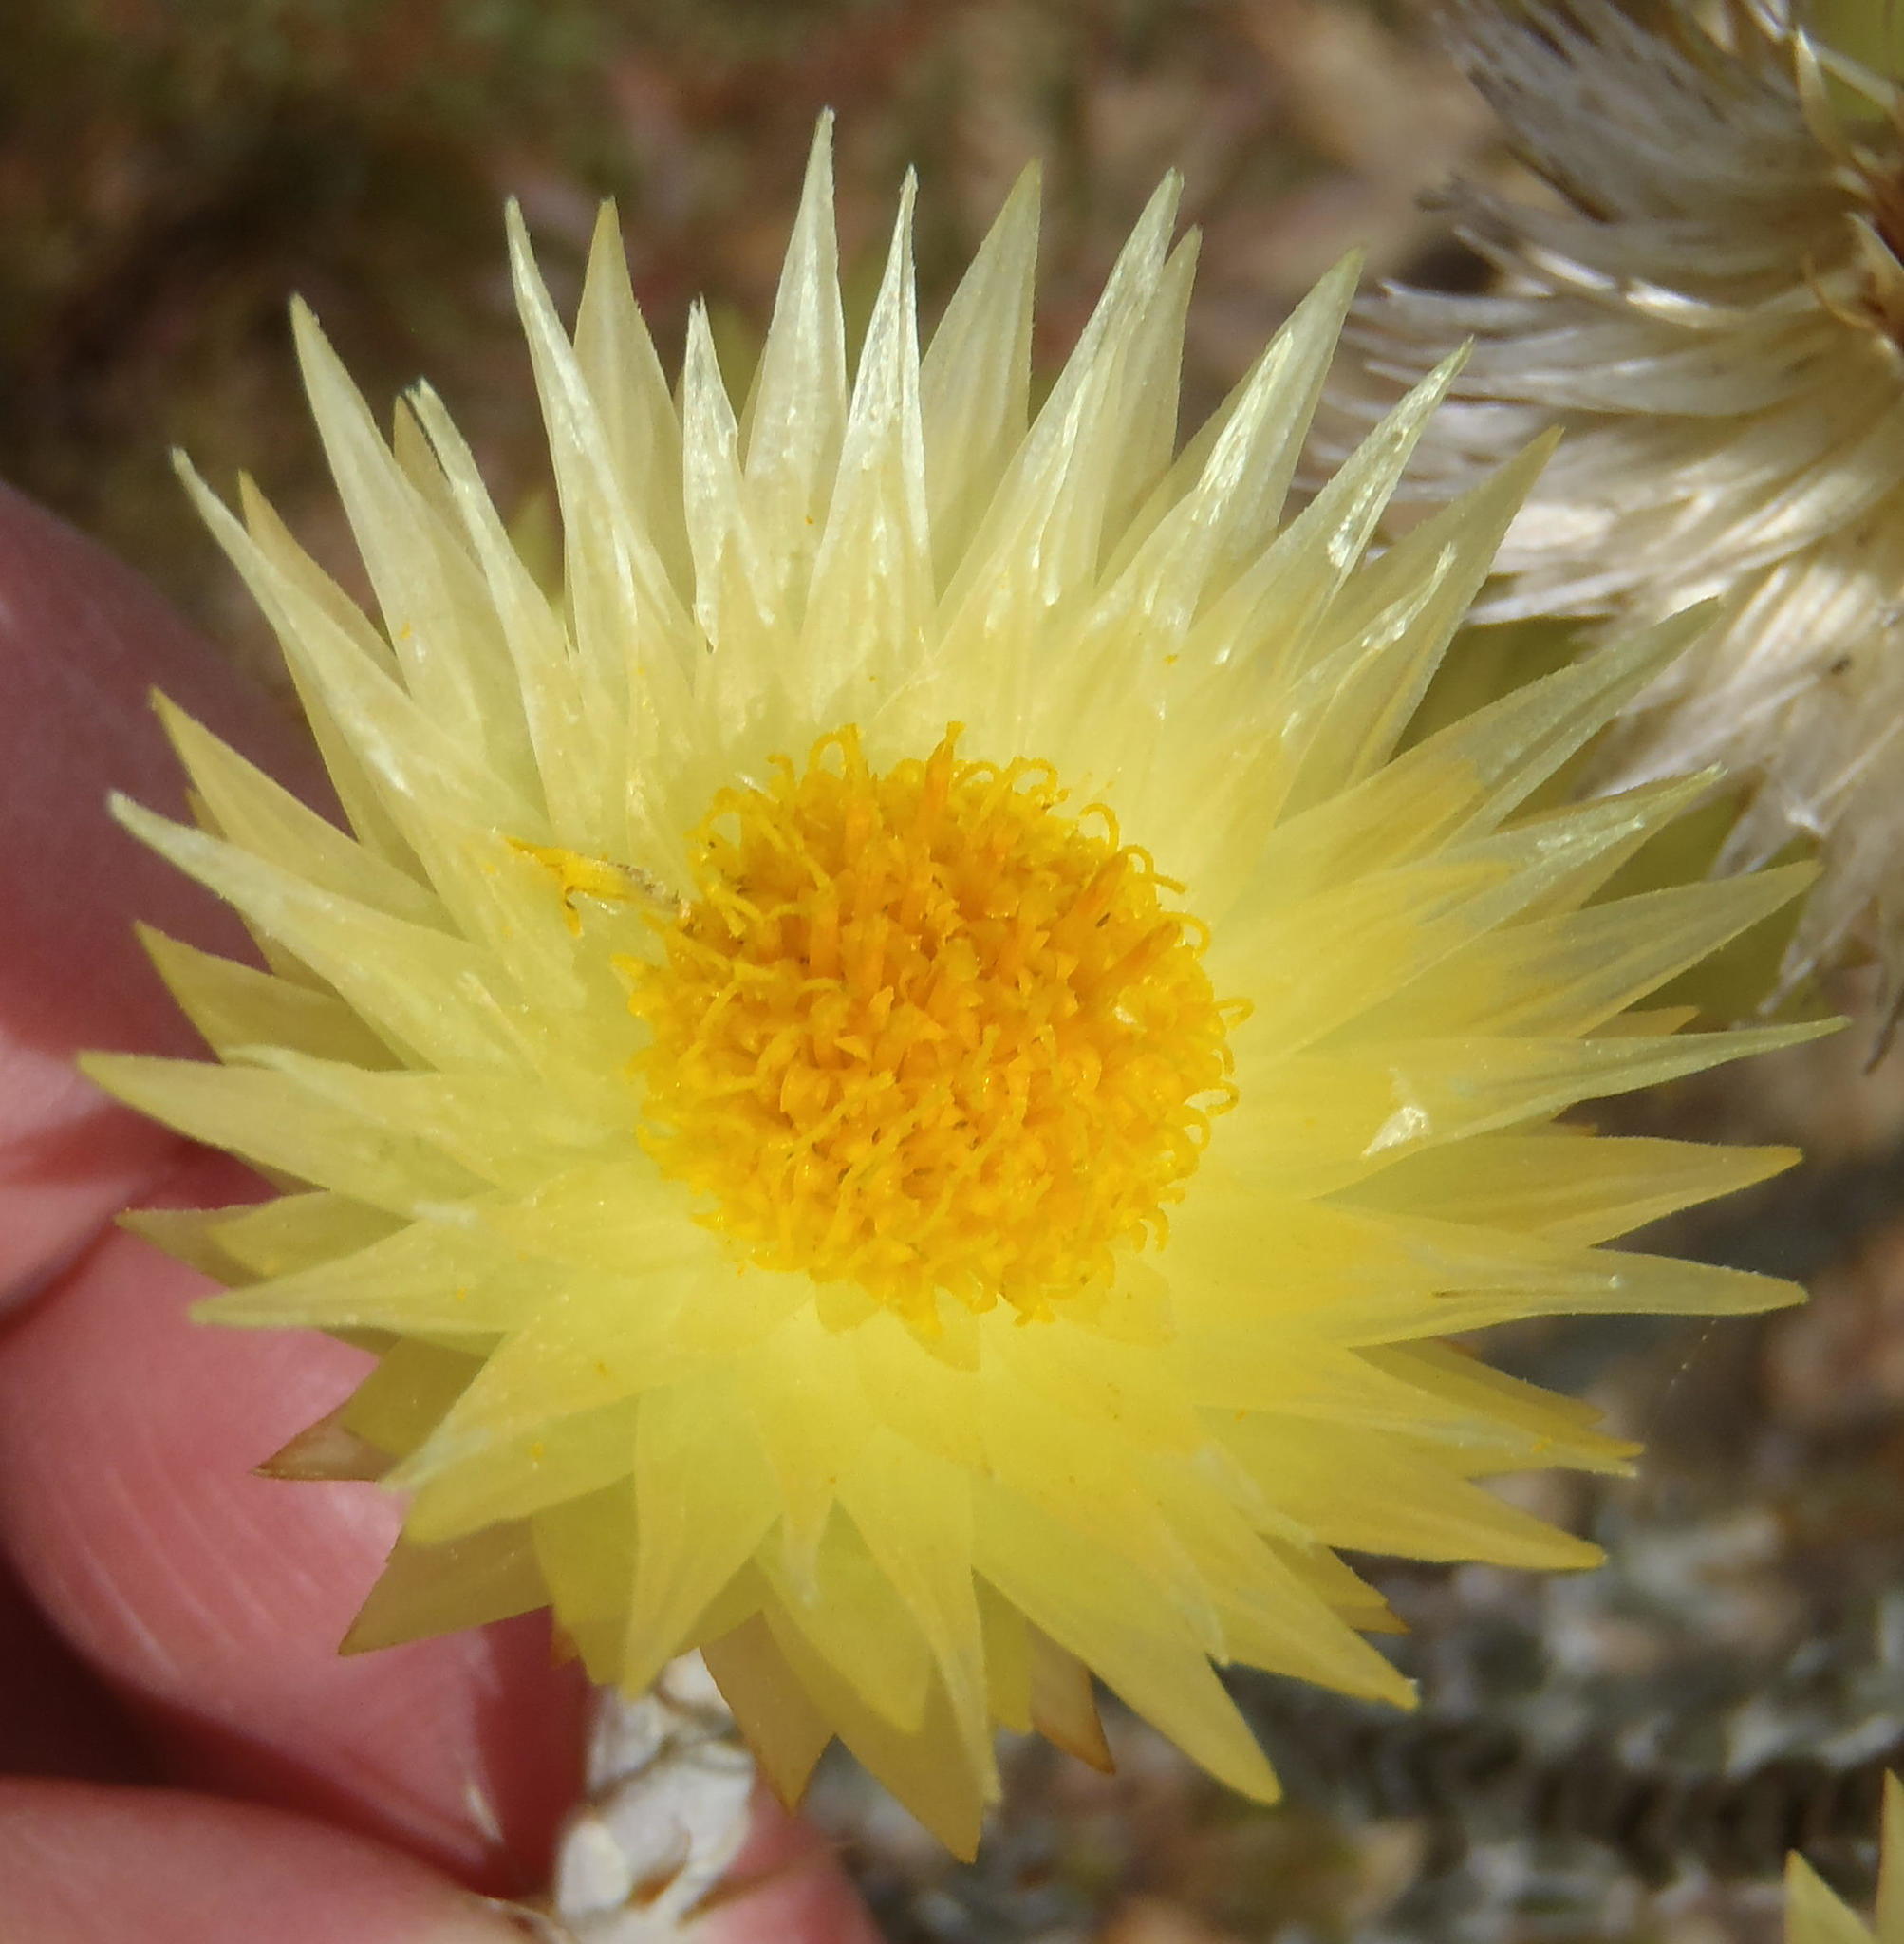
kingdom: Plantae
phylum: Tracheophyta
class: Magnoliopsida
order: Asterales
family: Asteraceae
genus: Syncarpha
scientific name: Syncarpha ferruginea
